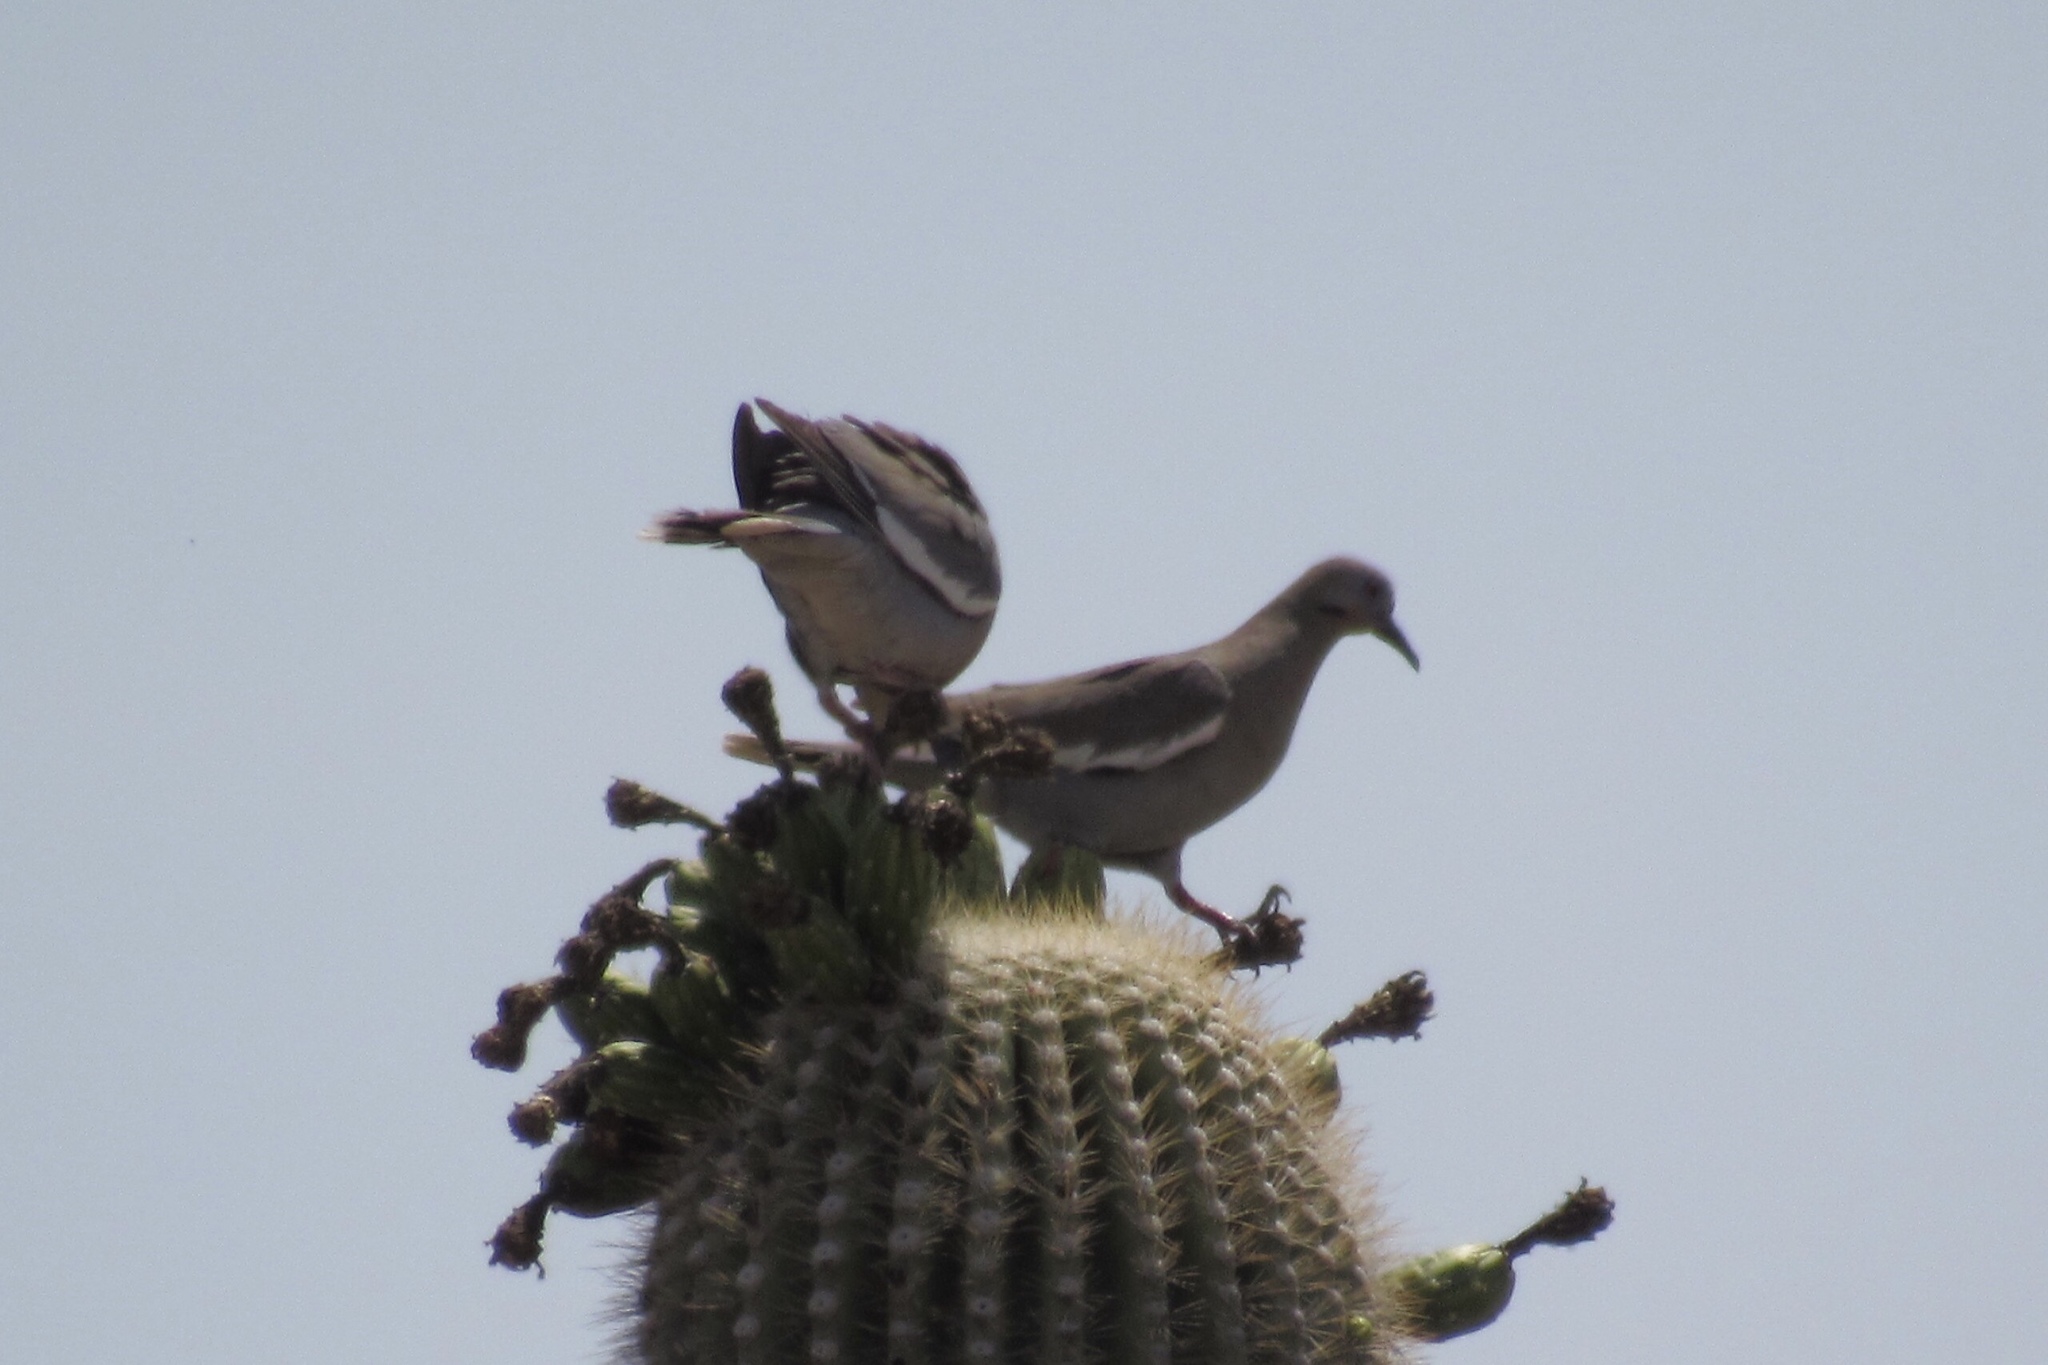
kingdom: Animalia
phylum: Chordata
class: Aves
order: Columbiformes
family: Columbidae
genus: Zenaida
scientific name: Zenaida asiatica
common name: White-winged dove
